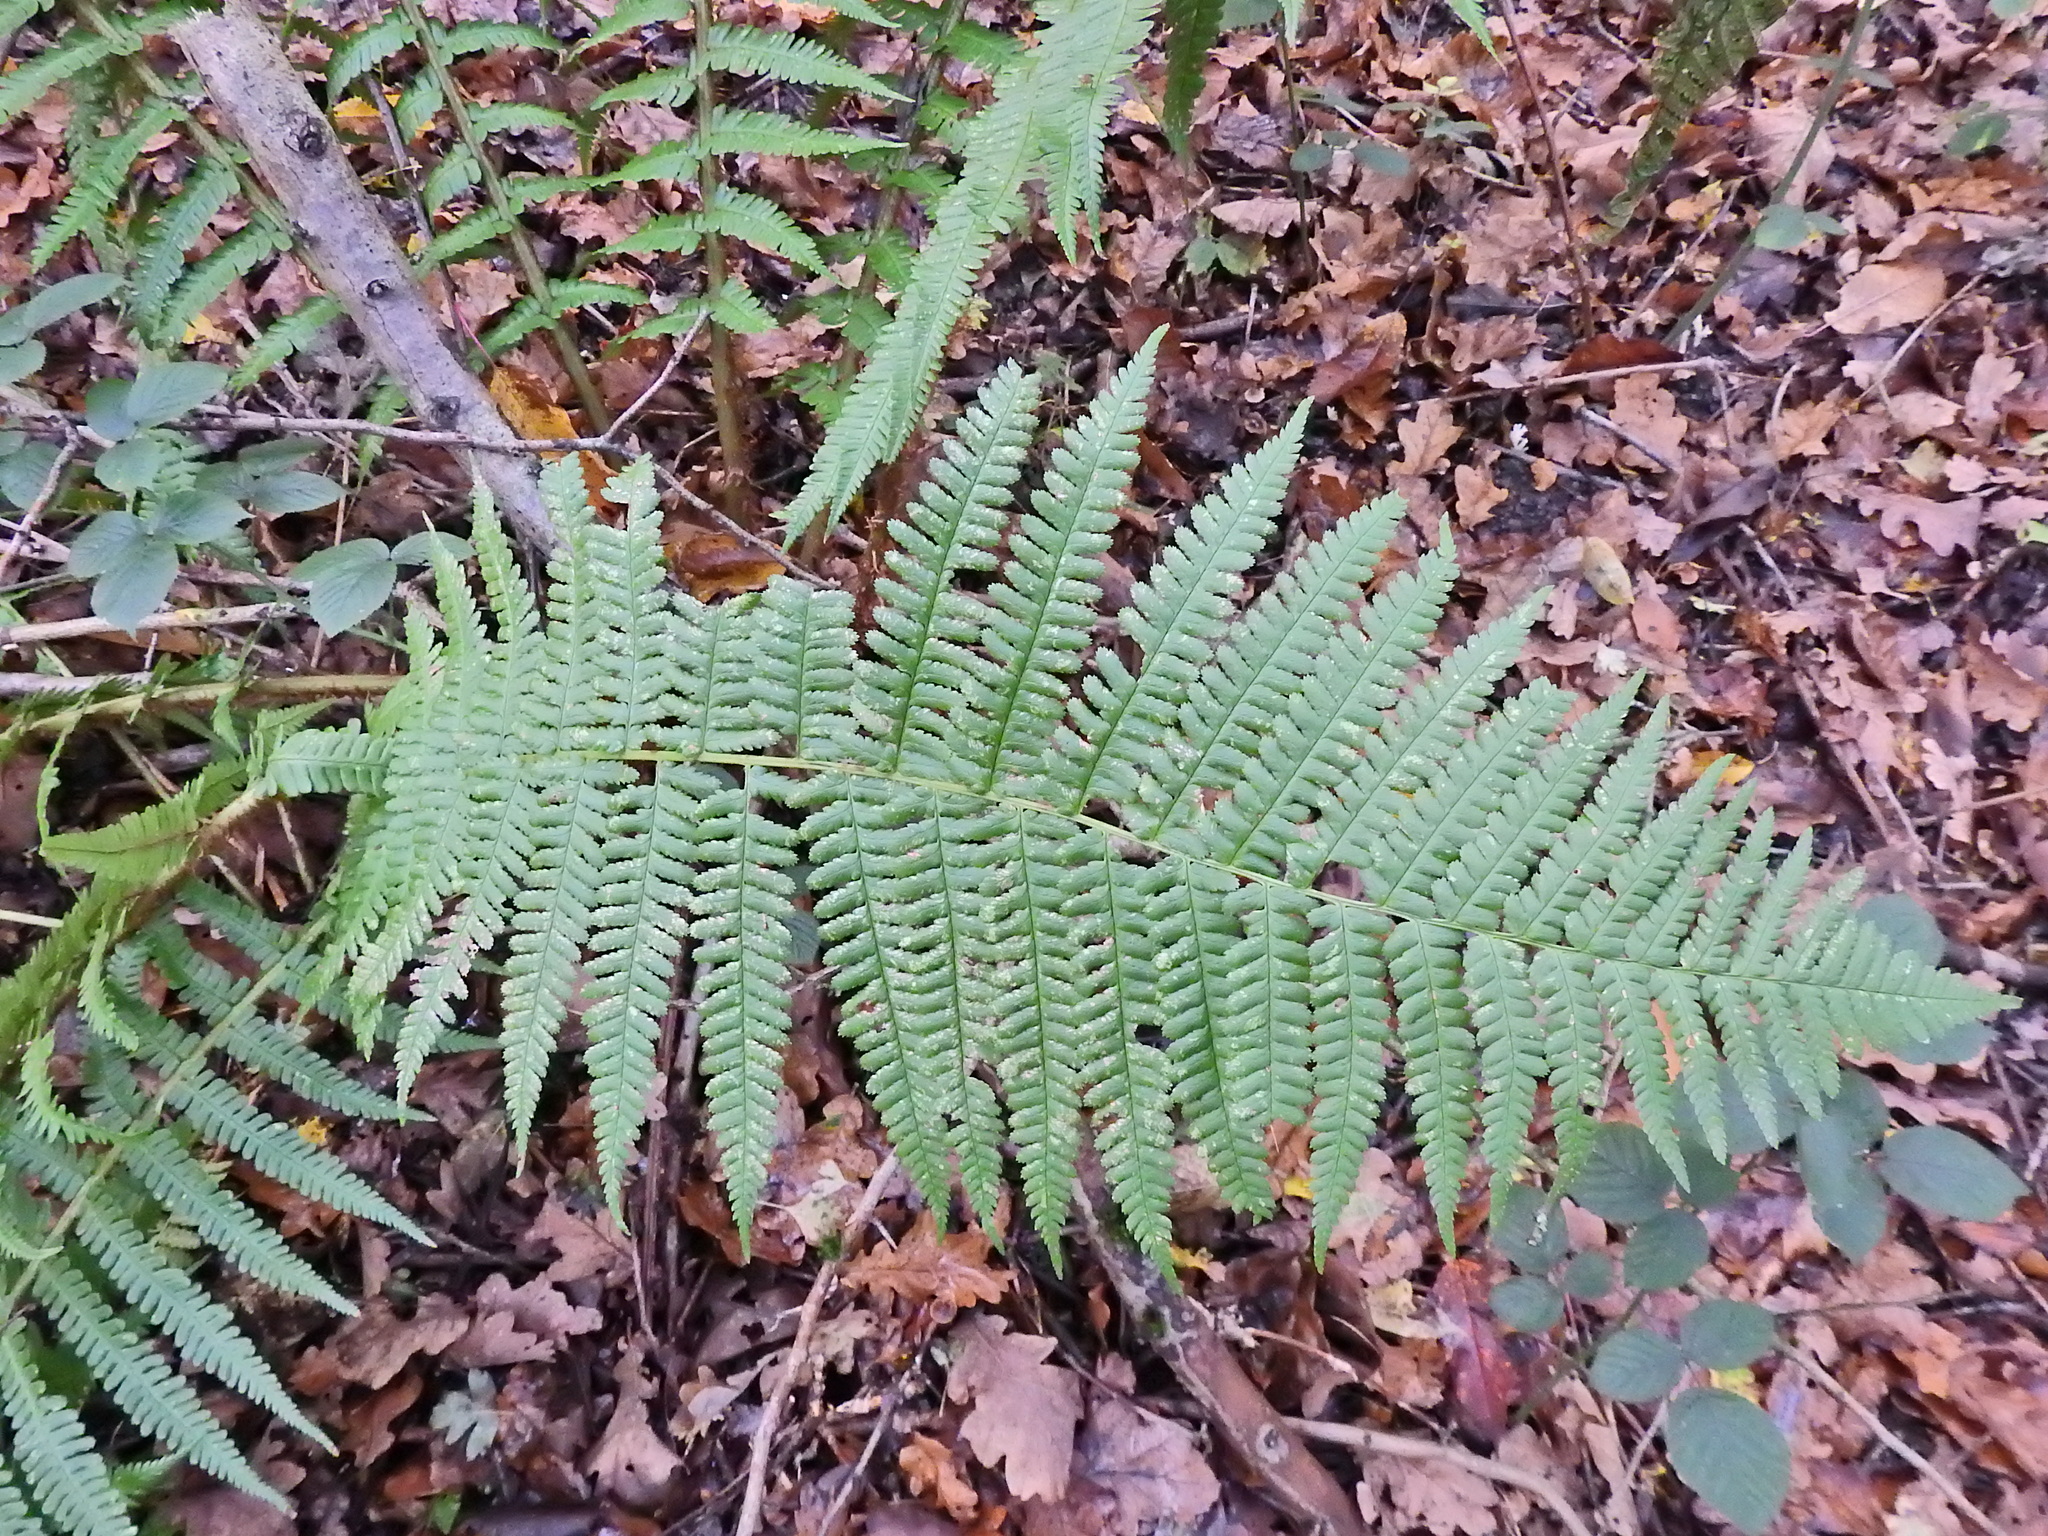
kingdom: Plantae
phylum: Tracheophyta
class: Polypodiopsida
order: Polypodiales
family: Dryopteridaceae
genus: Dryopteris
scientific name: Dryopteris filix-mas
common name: Male fern
